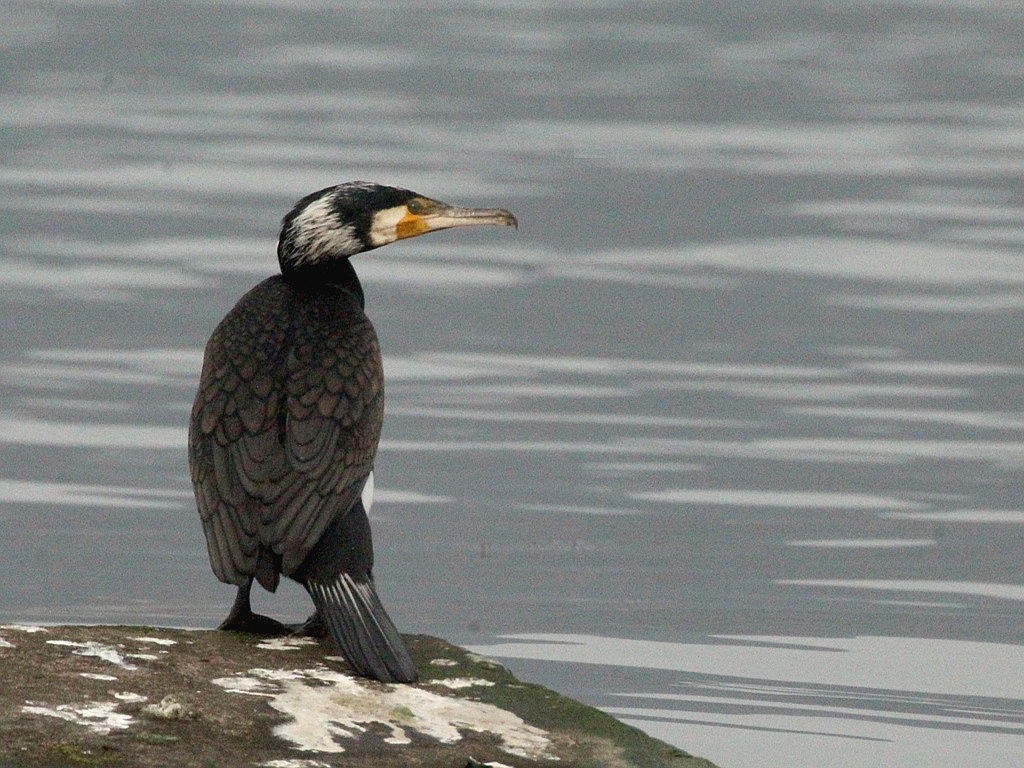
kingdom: Animalia
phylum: Chordata
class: Aves
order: Suliformes
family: Phalacrocoracidae
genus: Phalacrocorax
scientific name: Phalacrocorax carbo
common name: Great cormorant
